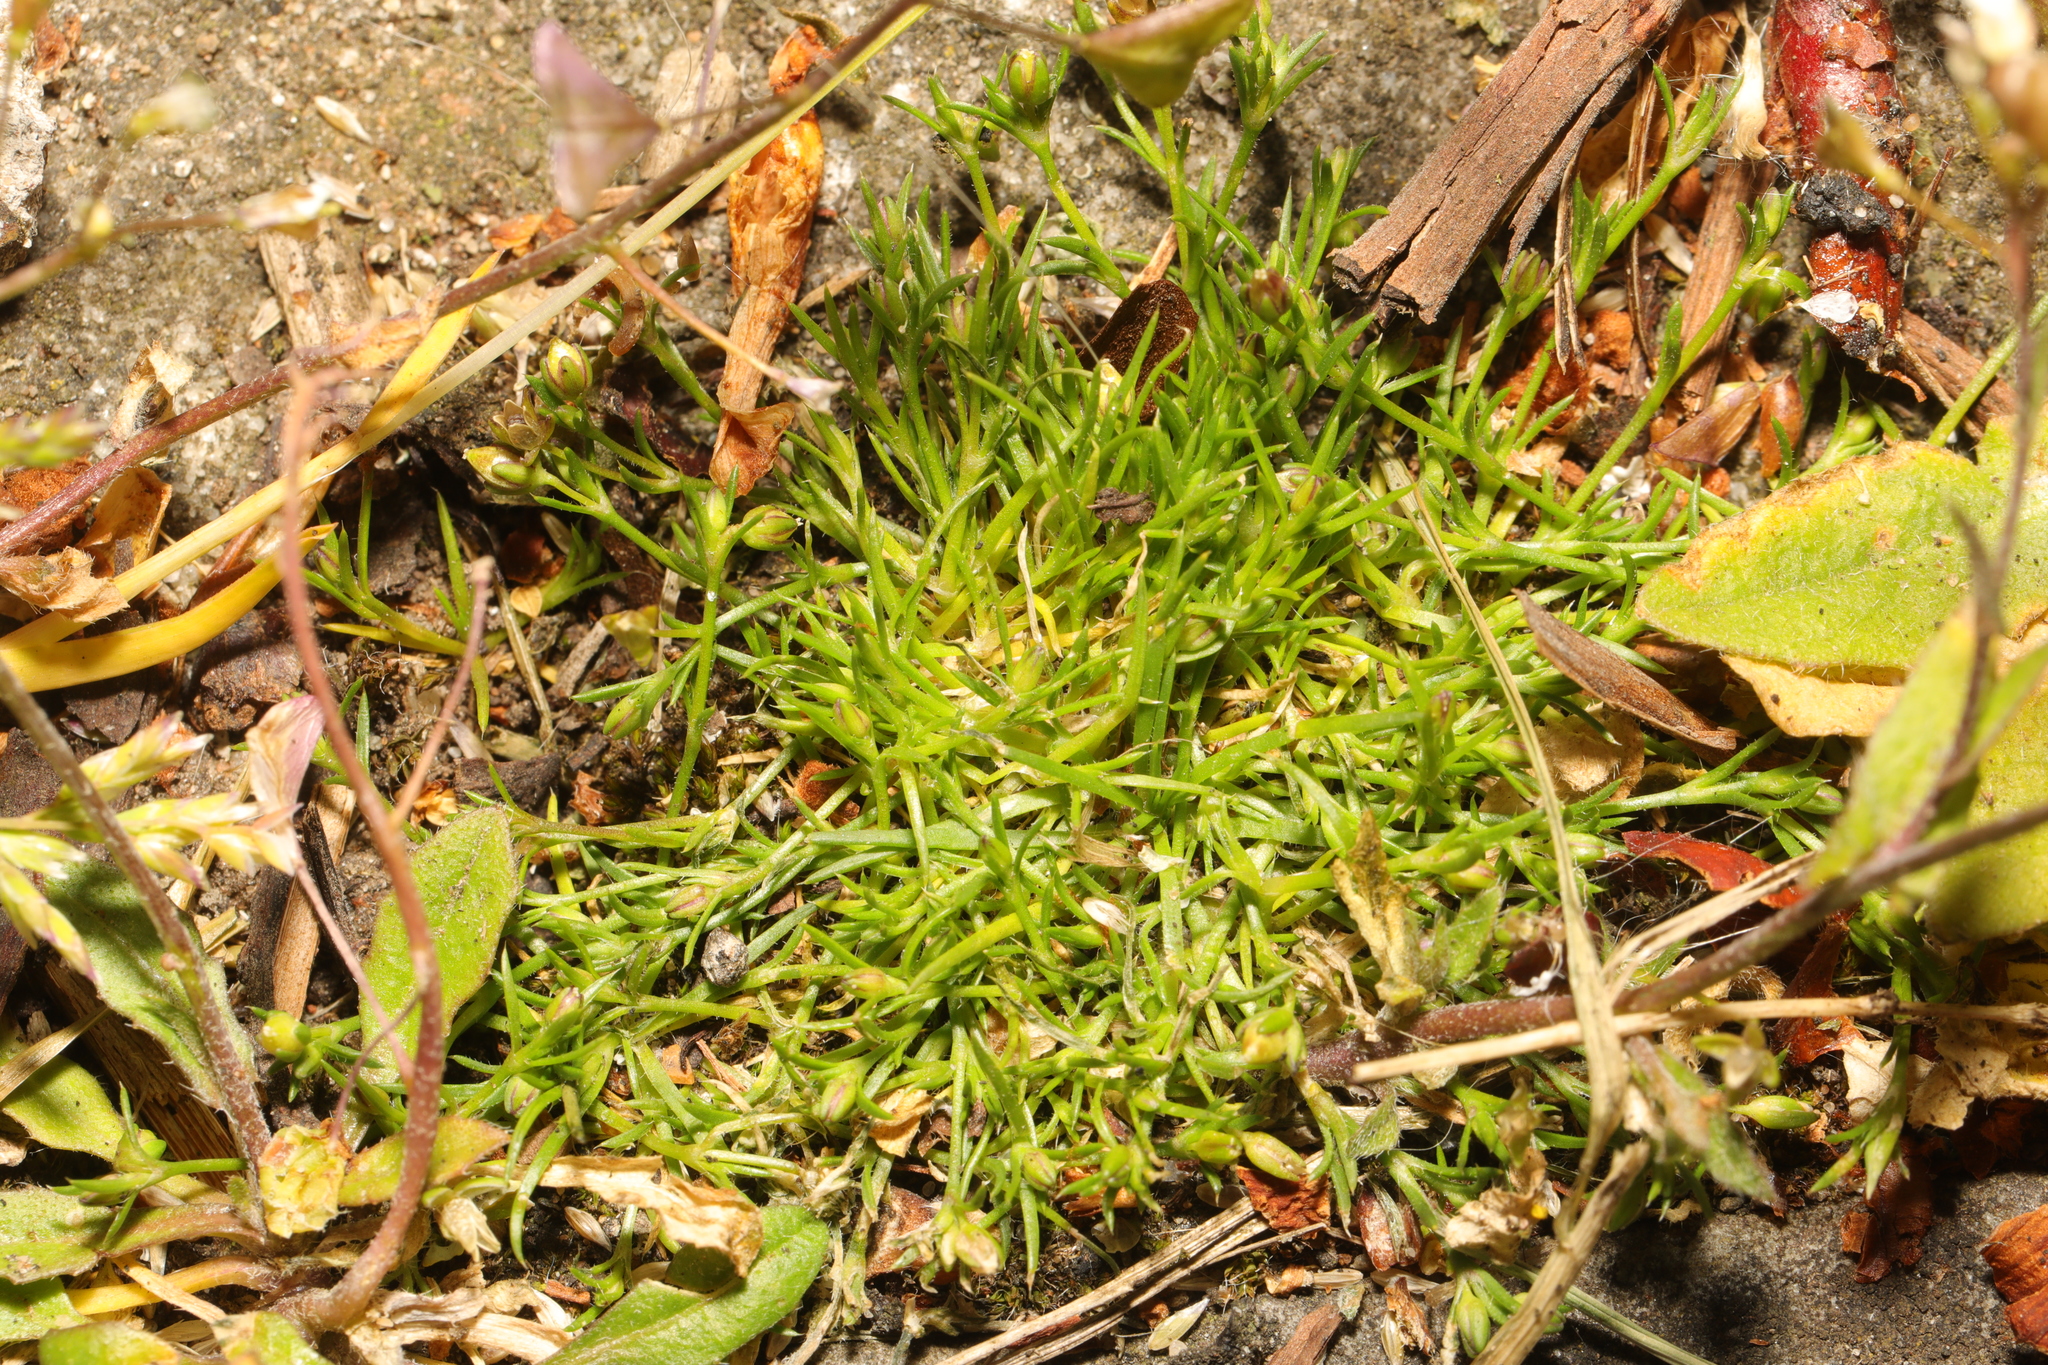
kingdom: Plantae
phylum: Tracheophyta
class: Magnoliopsida
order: Caryophyllales
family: Caryophyllaceae
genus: Sagina
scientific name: Sagina procumbens
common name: Procumbent pearlwort
